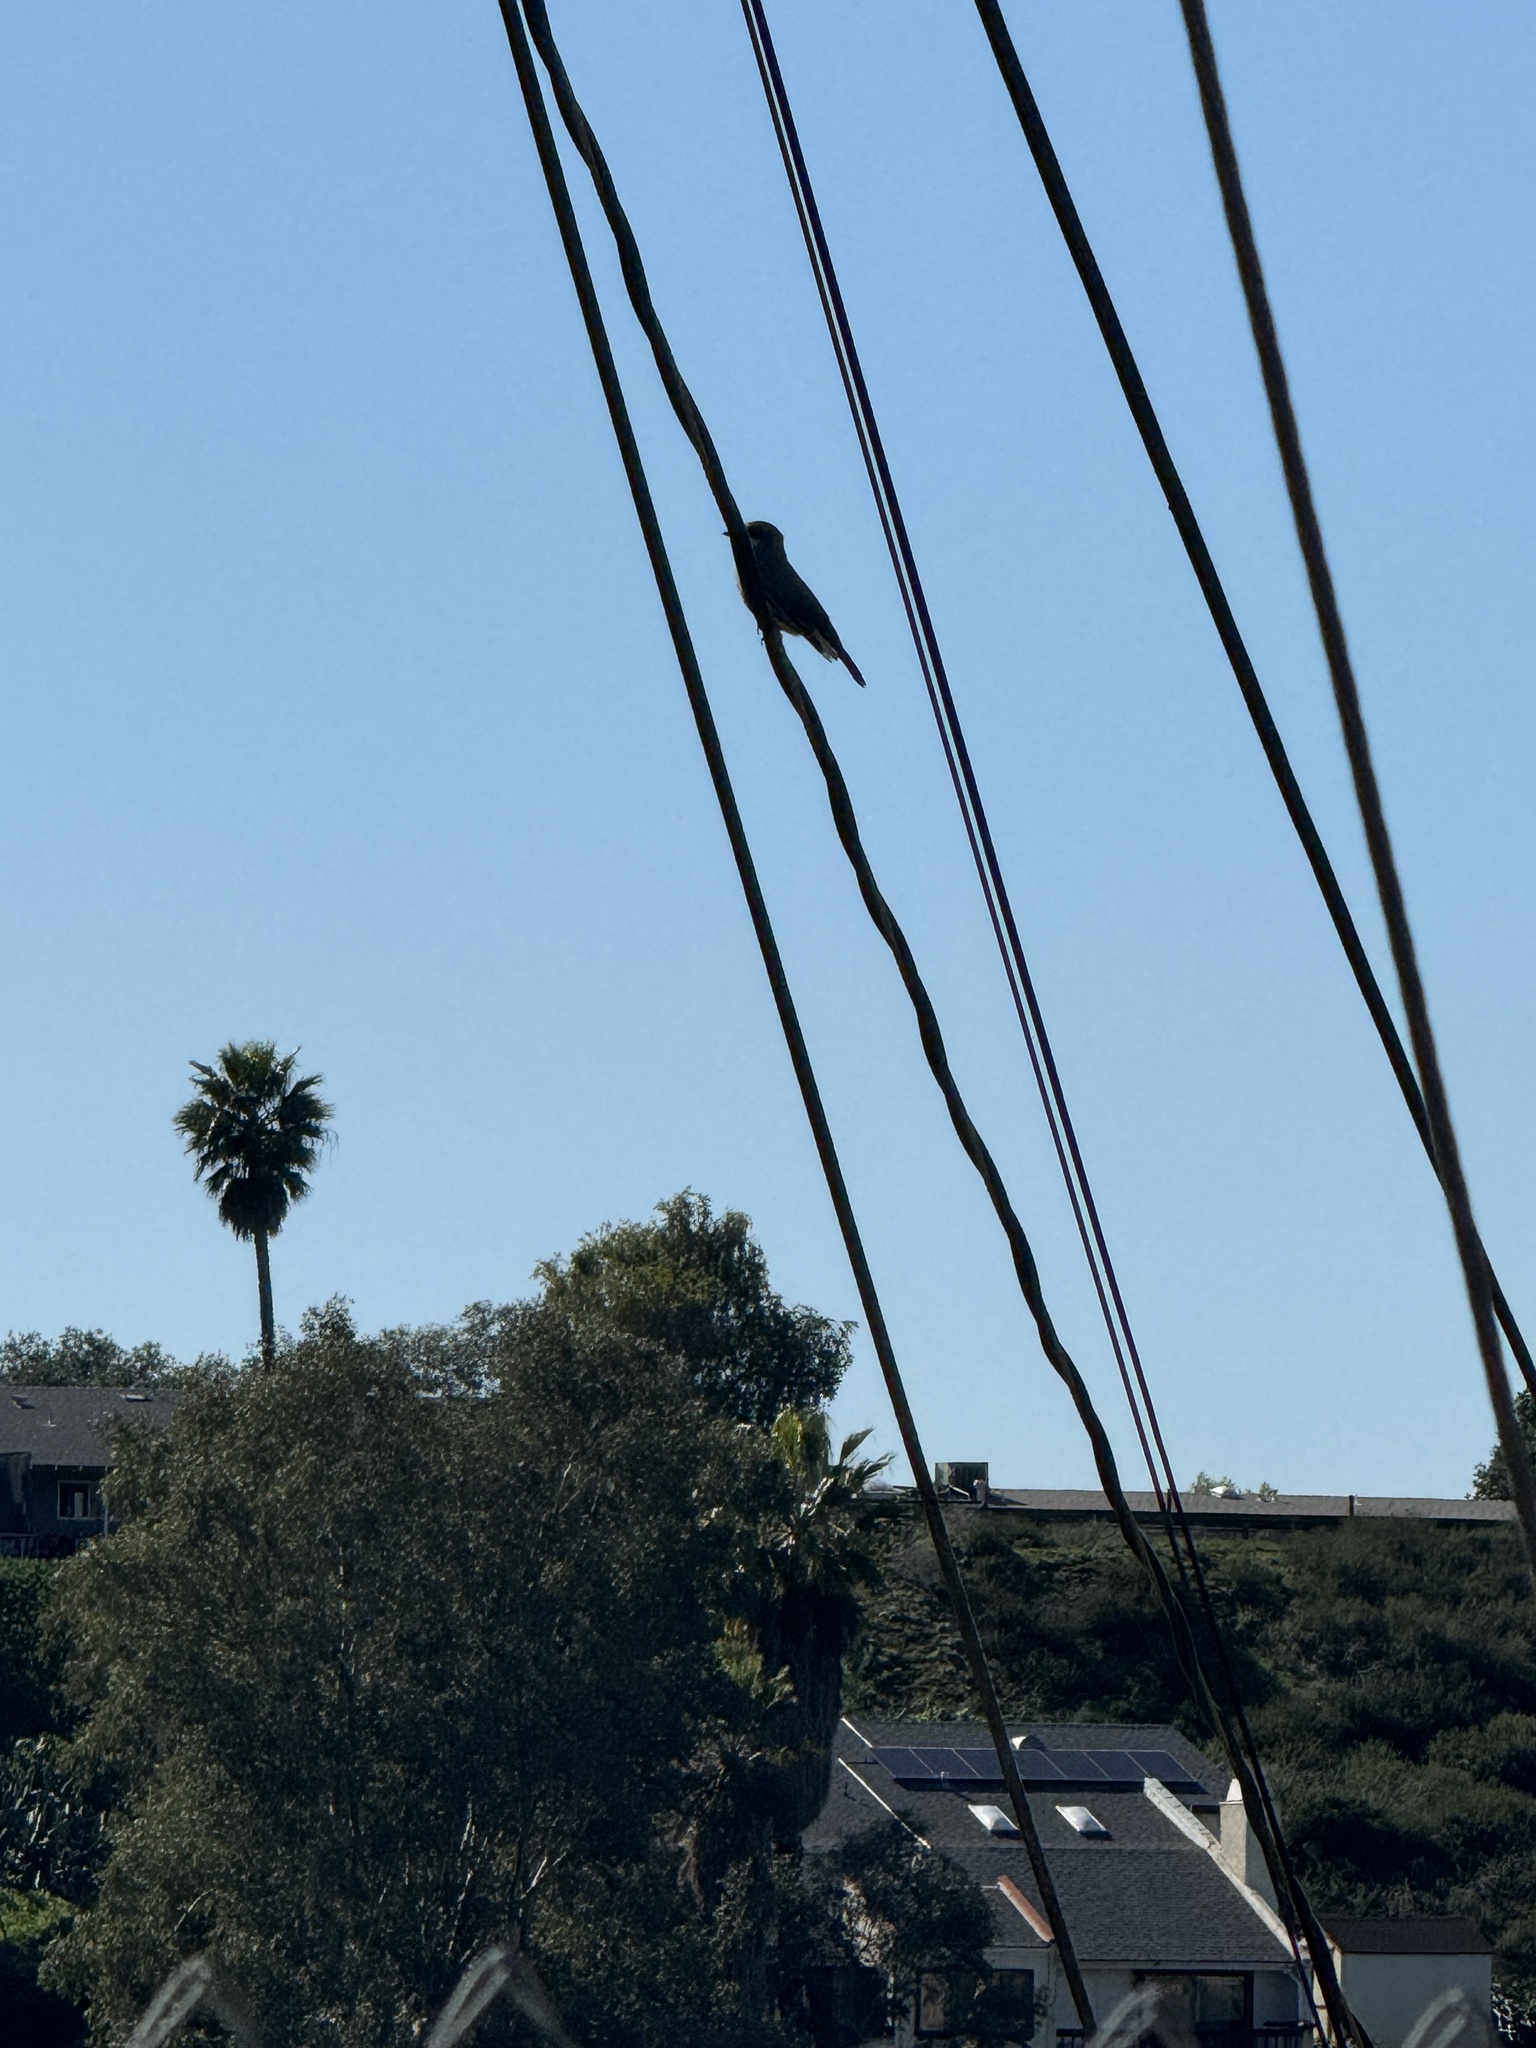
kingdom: Animalia
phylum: Chordata
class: Aves
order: Passeriformes
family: Tyrannidae
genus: Tyrannus
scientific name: Tyrannus vociferans
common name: Cassin's kingbird
